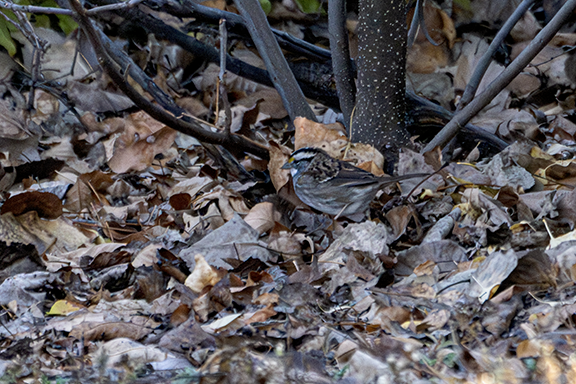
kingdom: Animalia
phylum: Chordata
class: Aves
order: Passeriformes
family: Passerellidae
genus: Zonotrichia
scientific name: Zonotrichia albicollis
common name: White-throated sparrow
